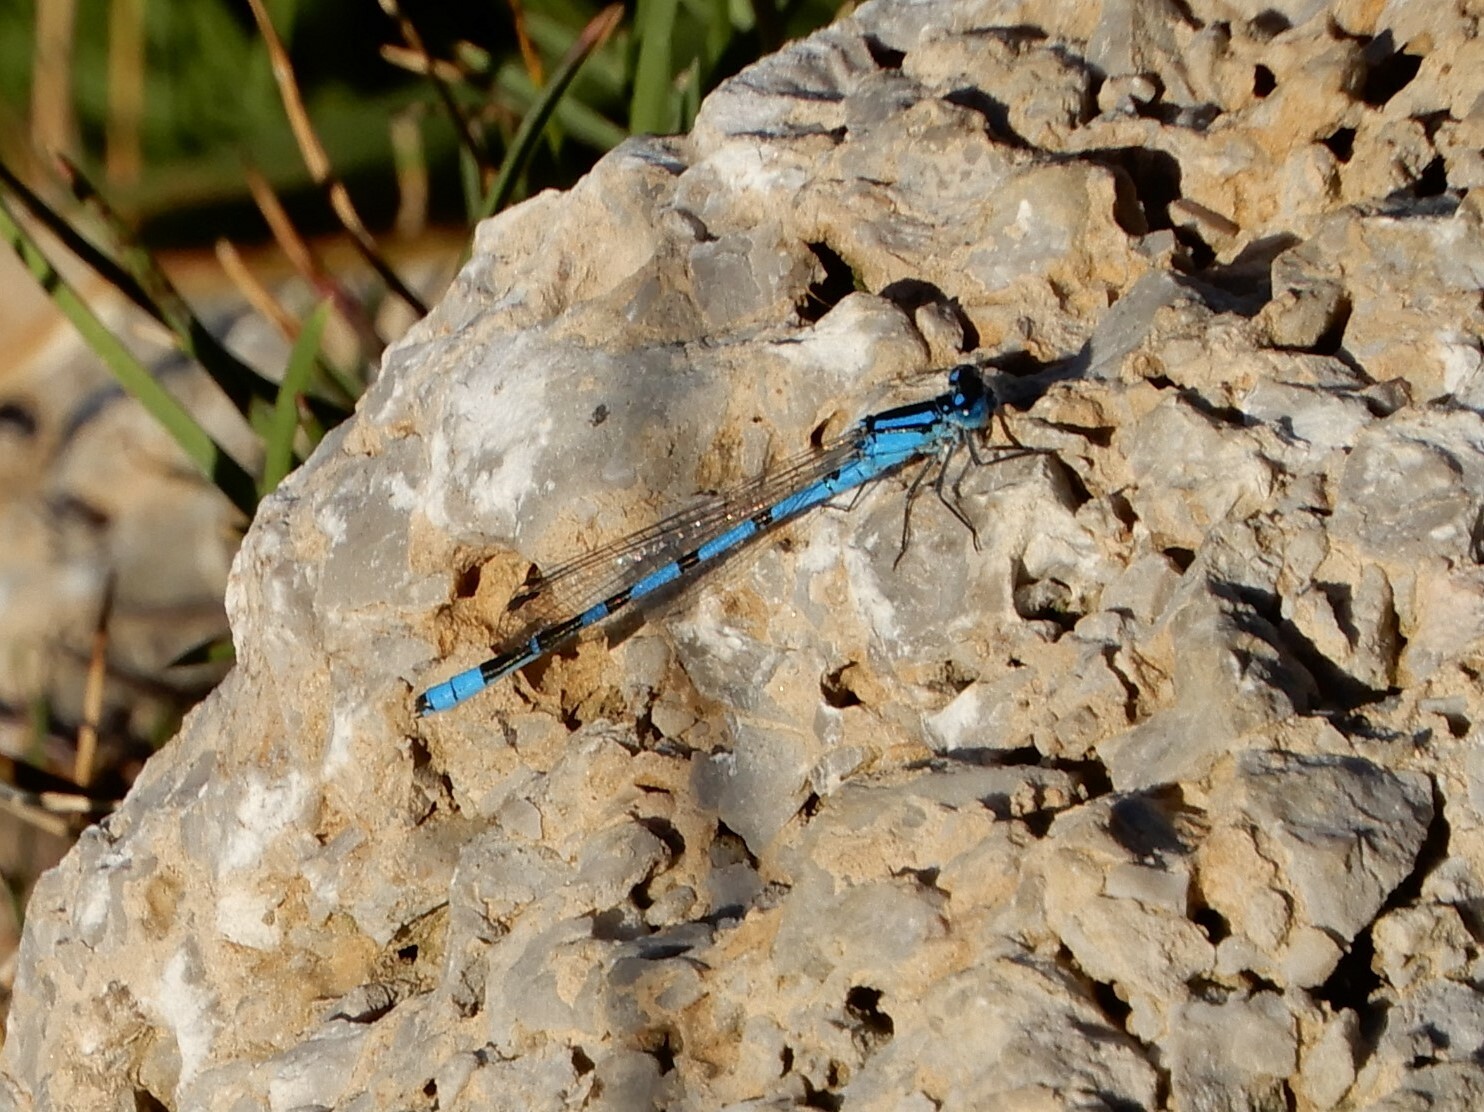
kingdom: Animalia
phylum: Arthropoda
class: Insecta
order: Odonata
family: Coenagrionidae
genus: Enallagma
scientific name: Enallagma cyathigerum
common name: Common blue damselfly
